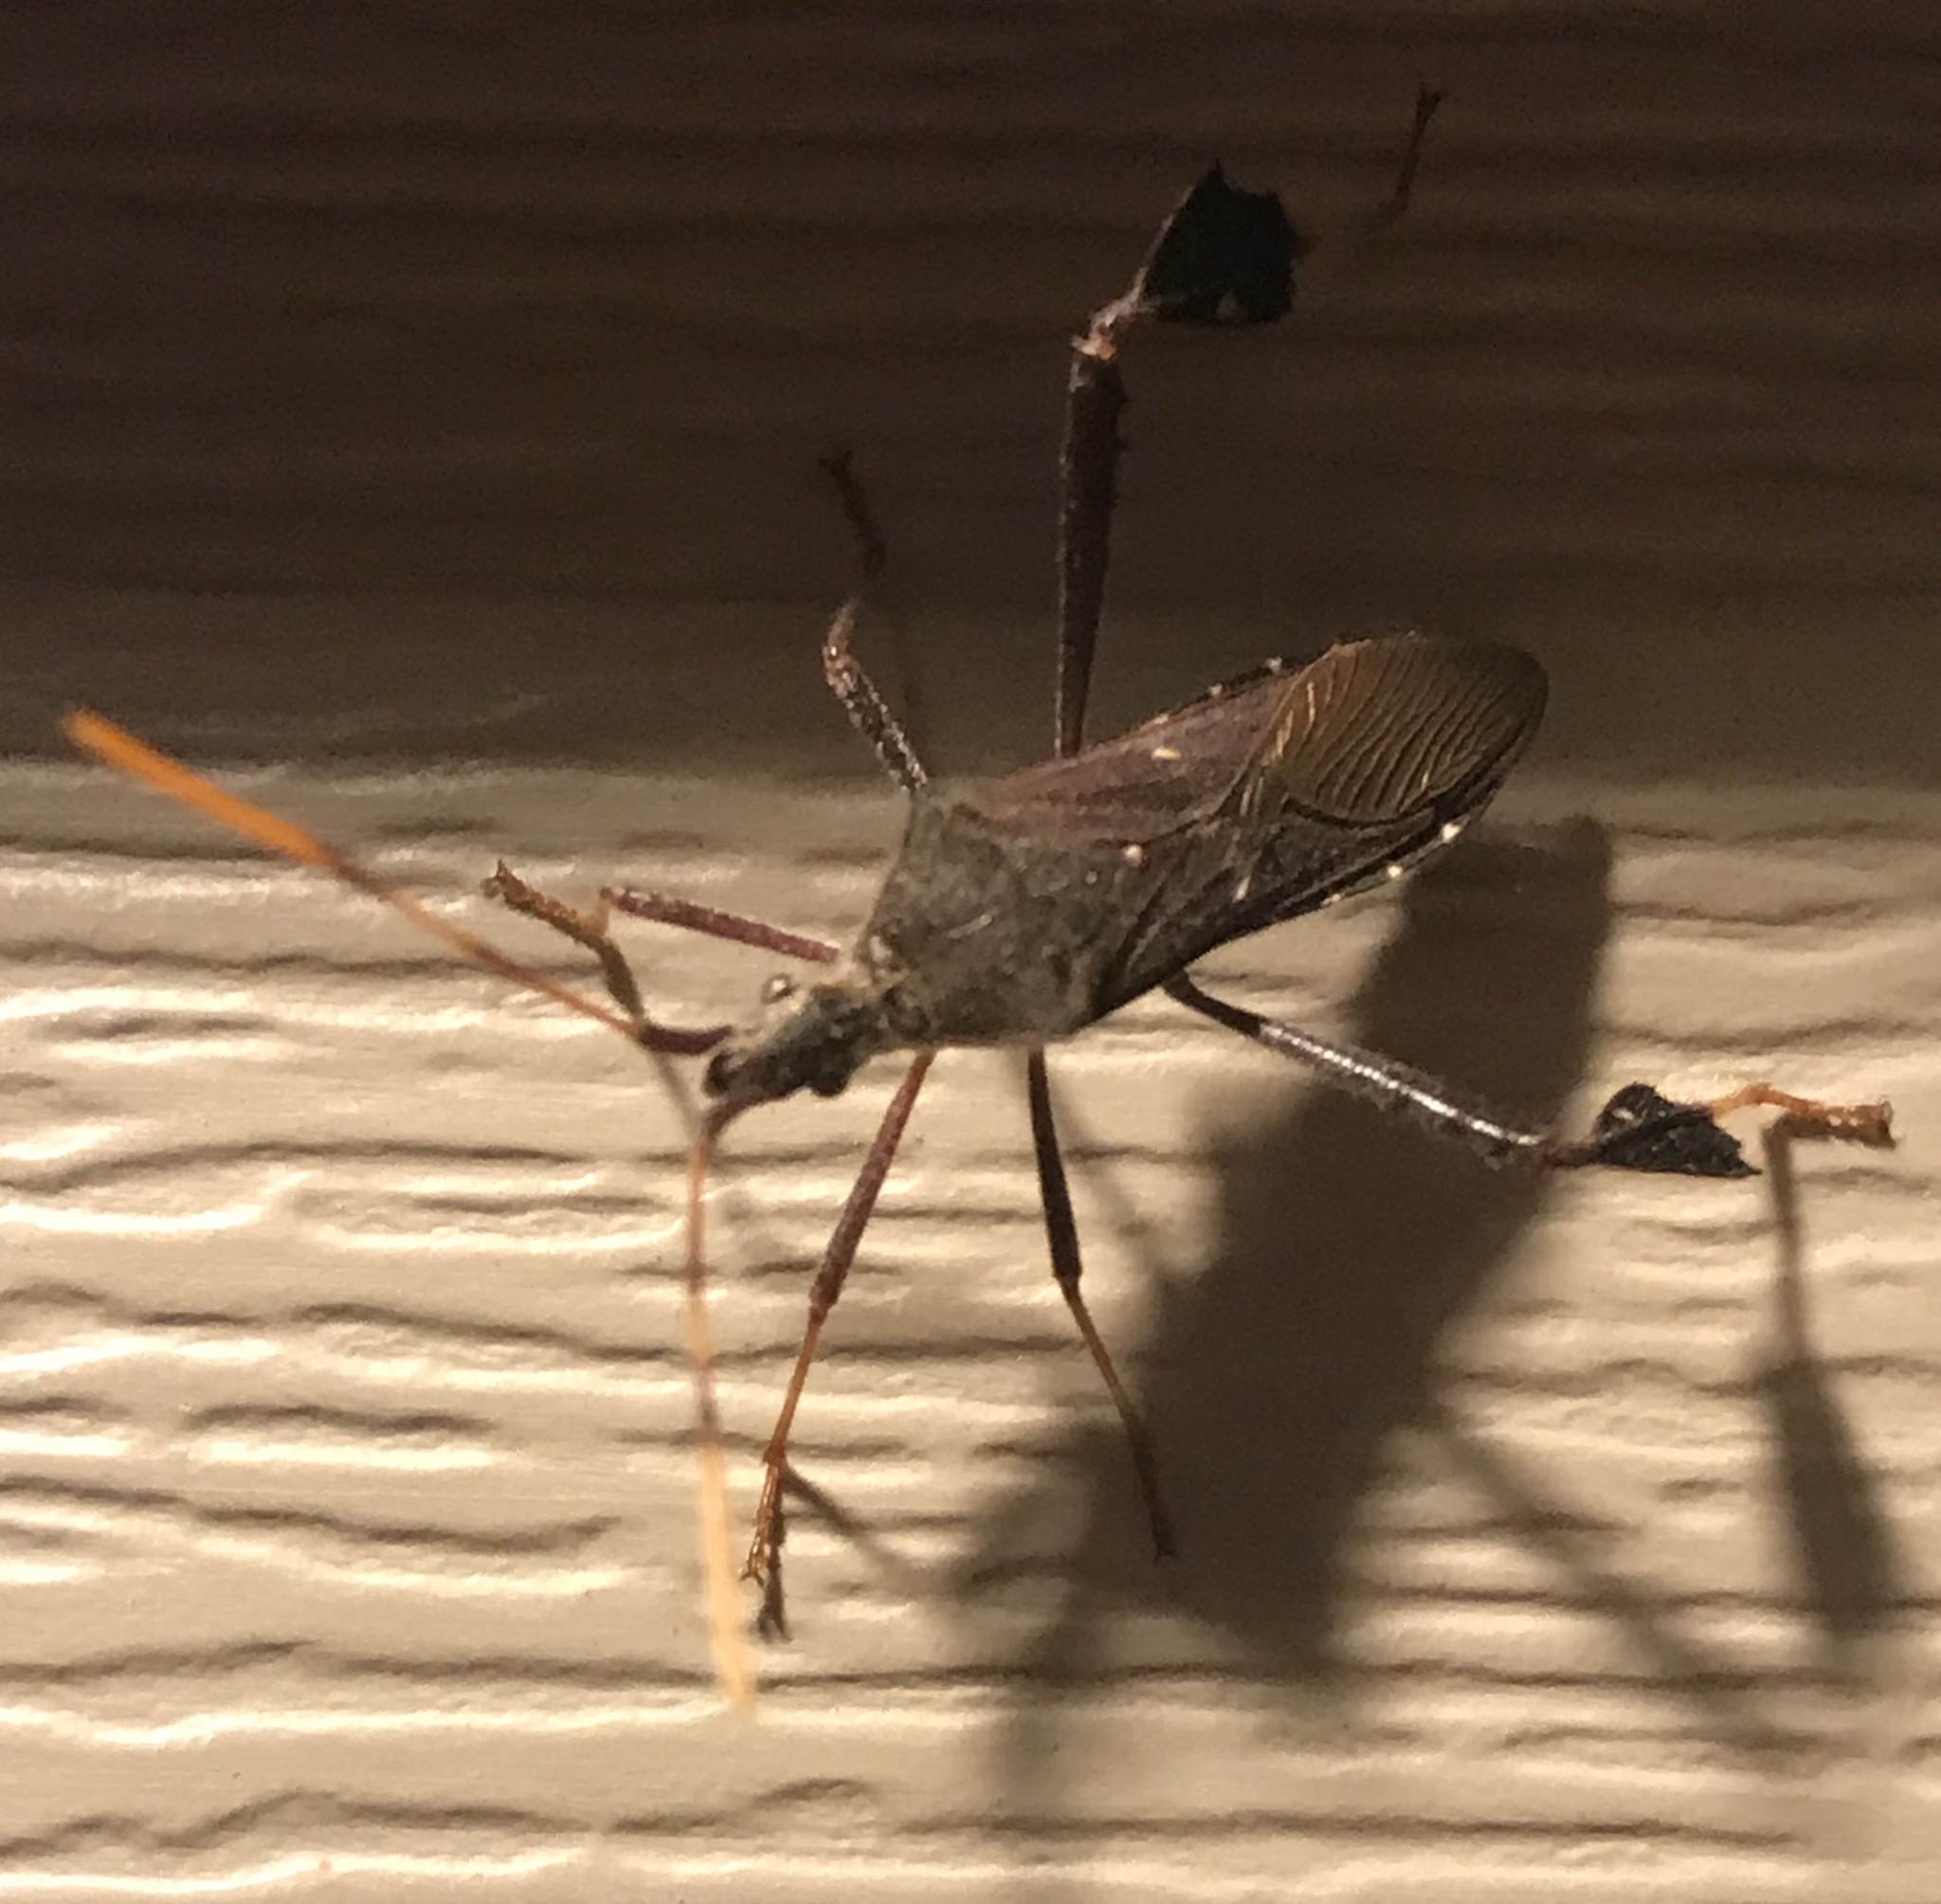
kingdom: Animalia
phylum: Arthropoda
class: Insecta
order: Hemiptera
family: Coreidae
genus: Leptoglossus
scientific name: Leptoglossus oppositus
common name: Northern leaf-footed bug
